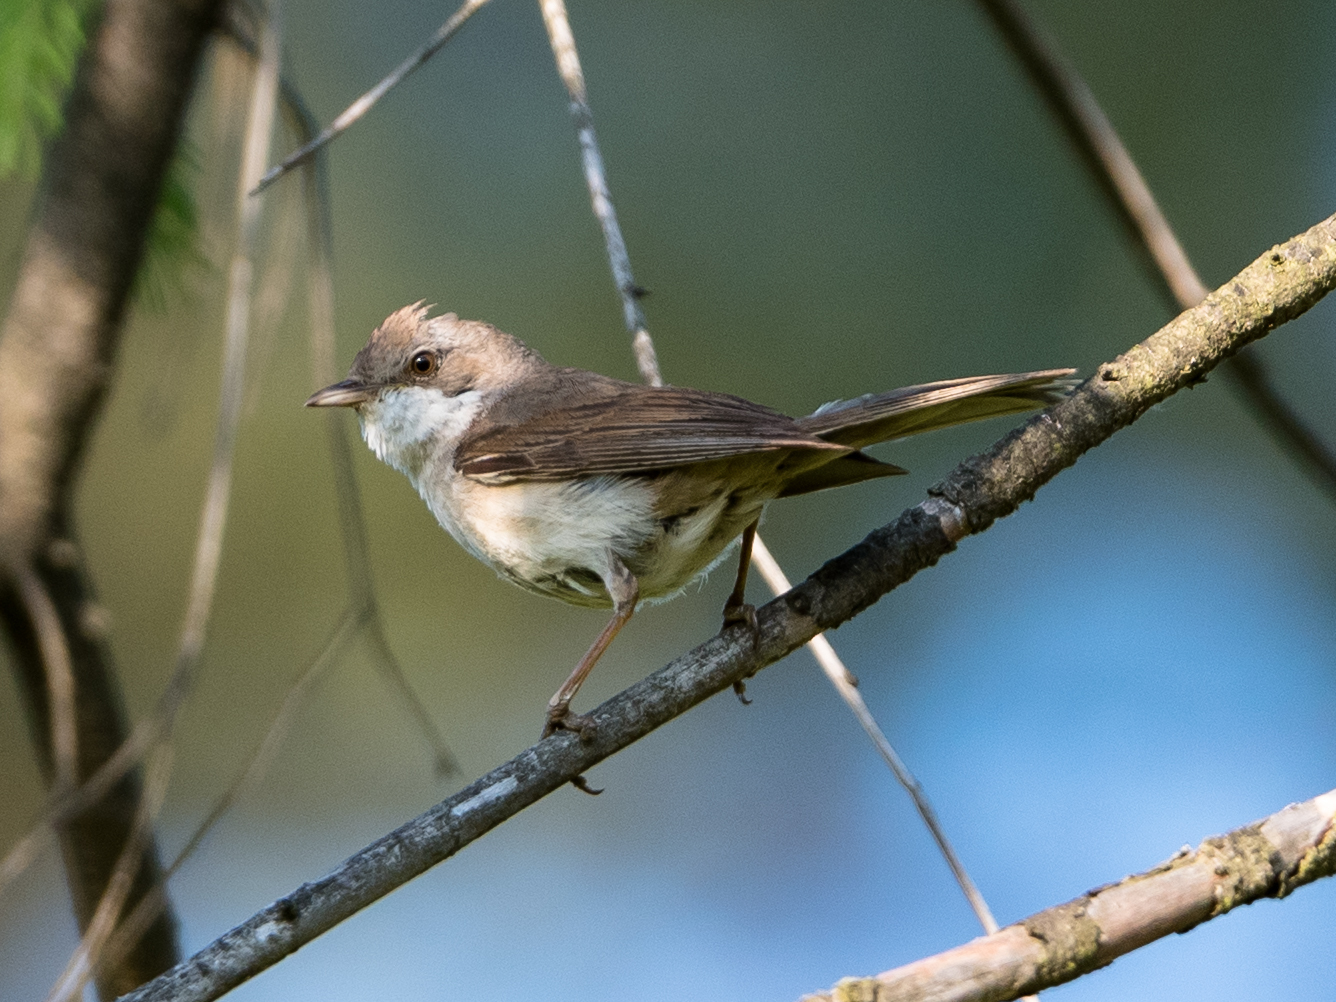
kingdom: Animalia
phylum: Chordata
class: Aves
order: Passeriformes
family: Sylviidae
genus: Sylvia
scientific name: Sylvia communis
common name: Common whitethroat
